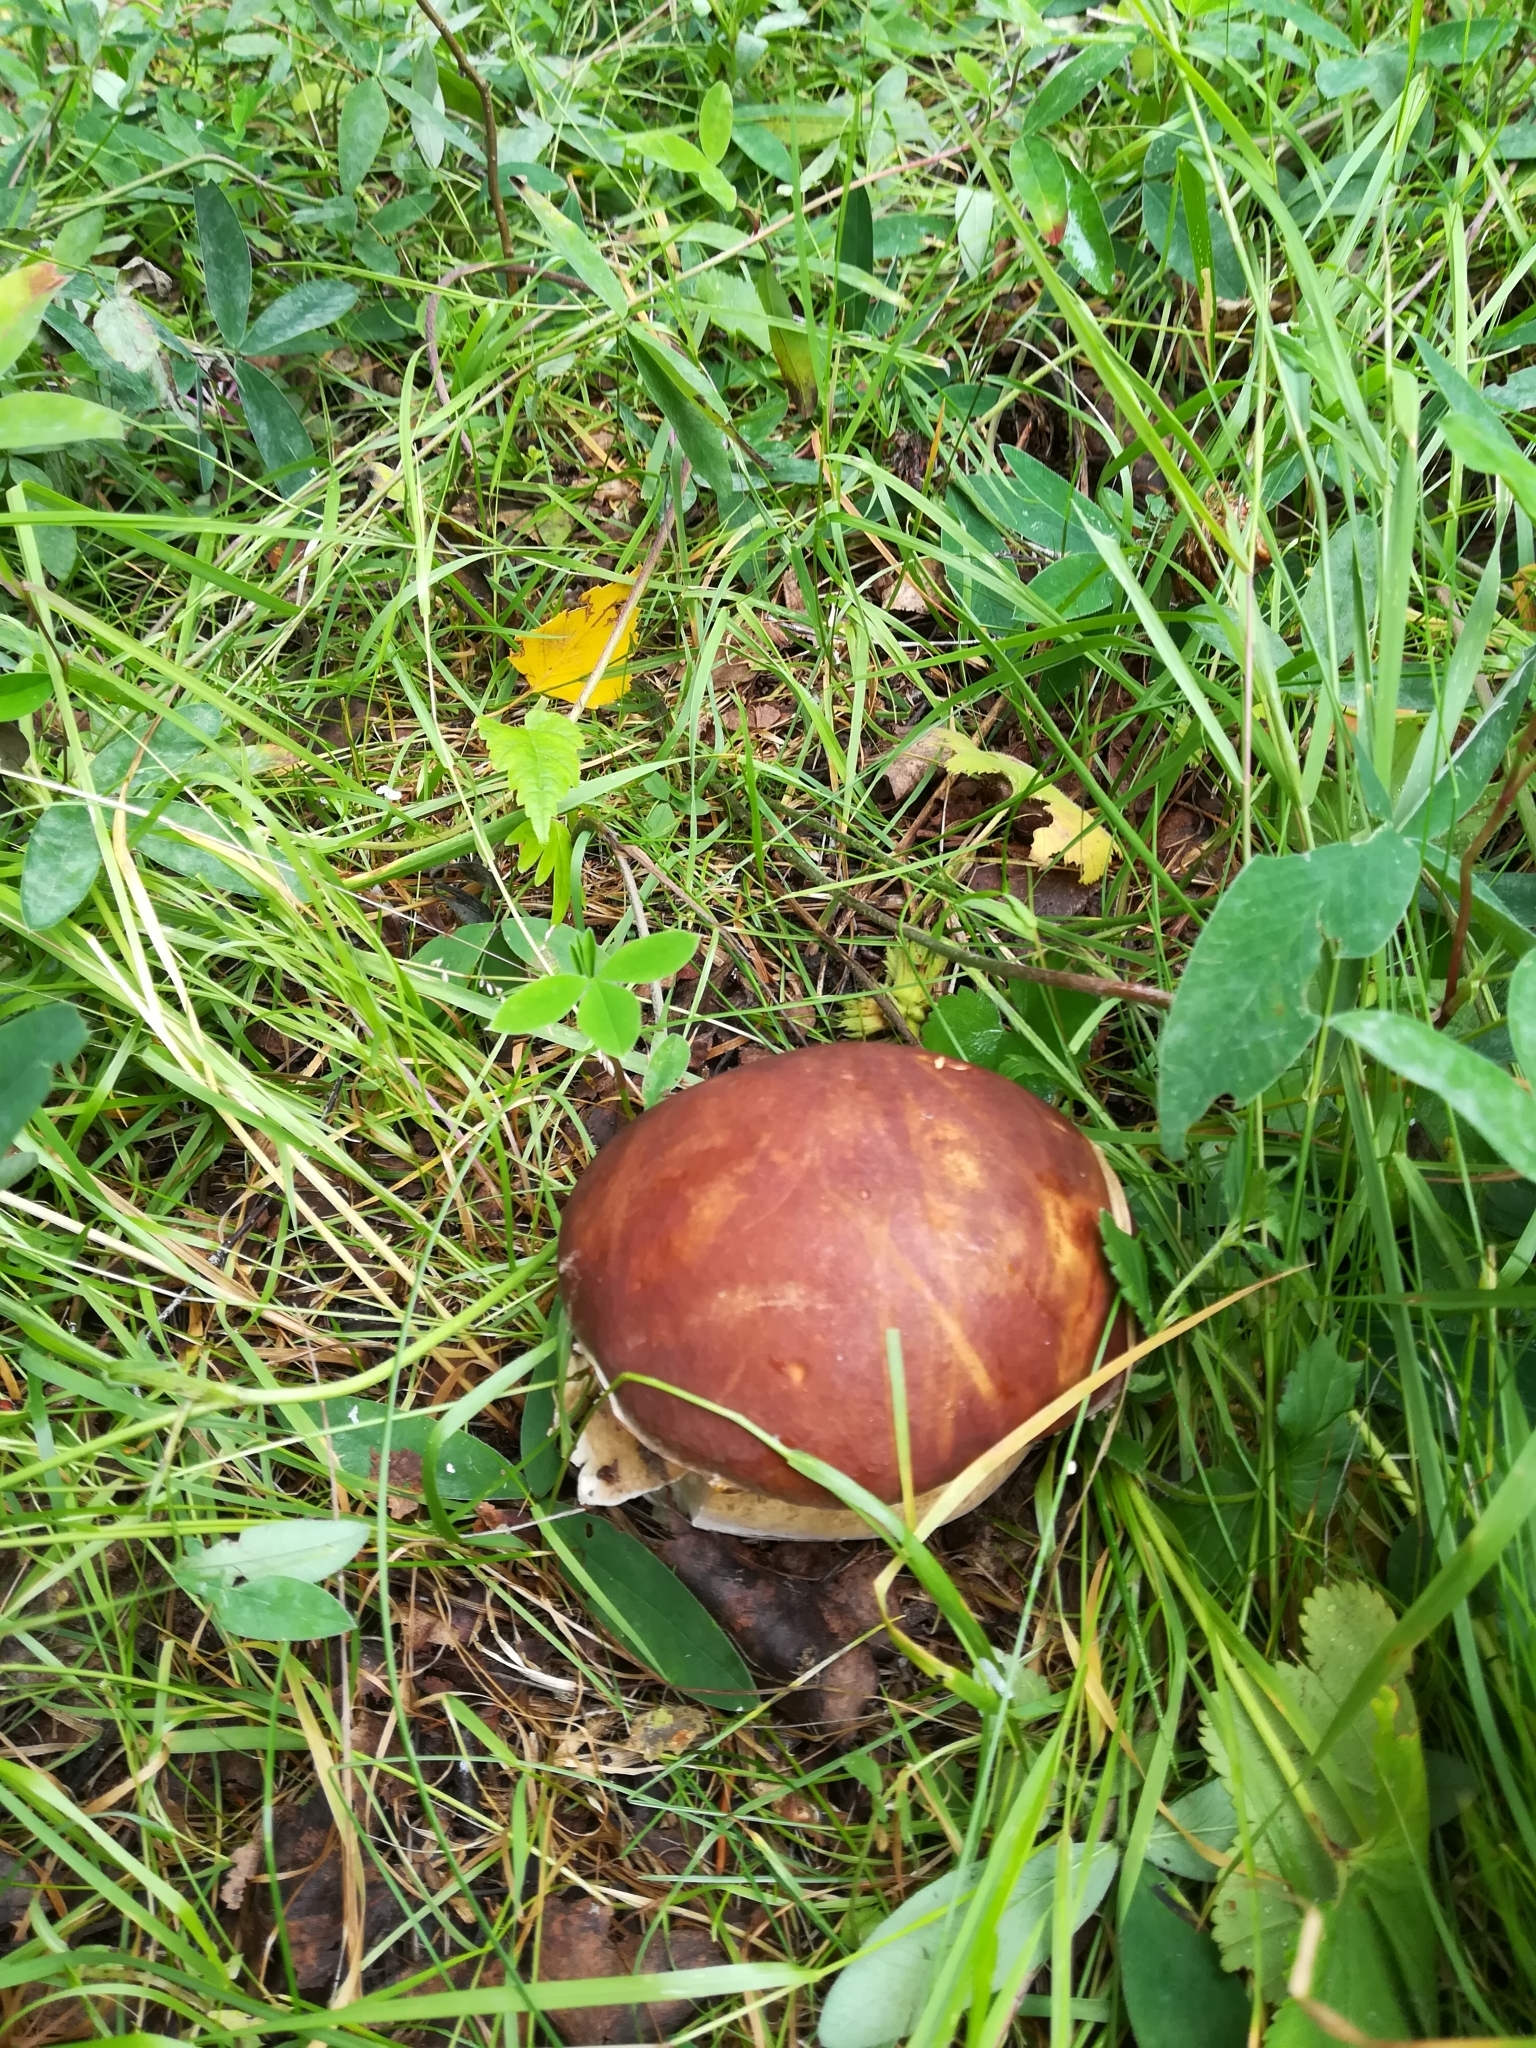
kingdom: Fungi
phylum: Basidiomycota
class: Agaricomycetes
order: Boletales
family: Boletaceae
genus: Boletus
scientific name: Boletus edulis
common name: Cep
